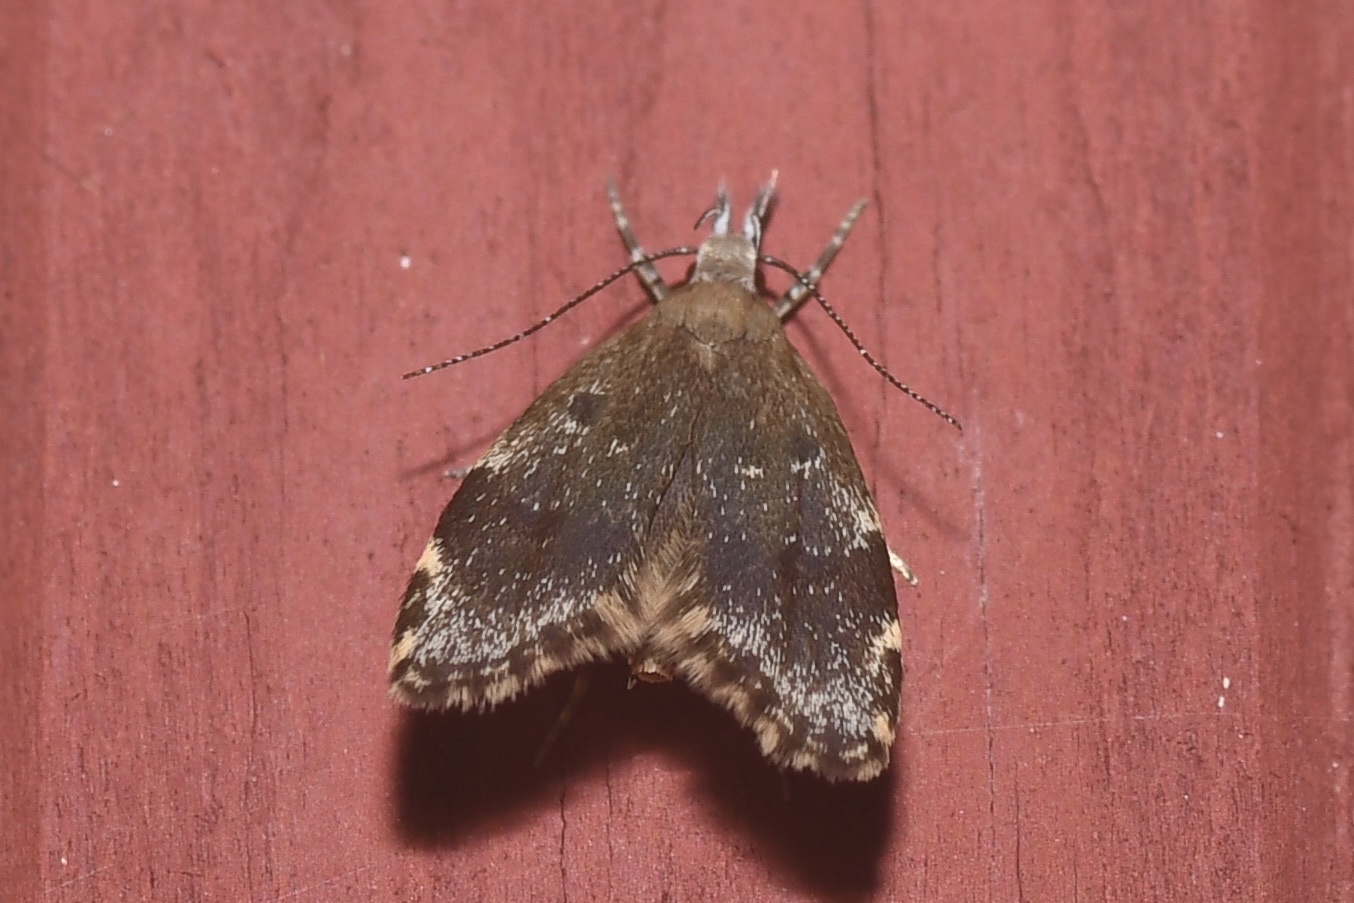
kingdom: Animalia
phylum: Arthropoda
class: Insecta
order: Lepidoptera
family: Oecophoridae
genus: Eido
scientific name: Eido trimaculella
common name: Three-spotted concealer
